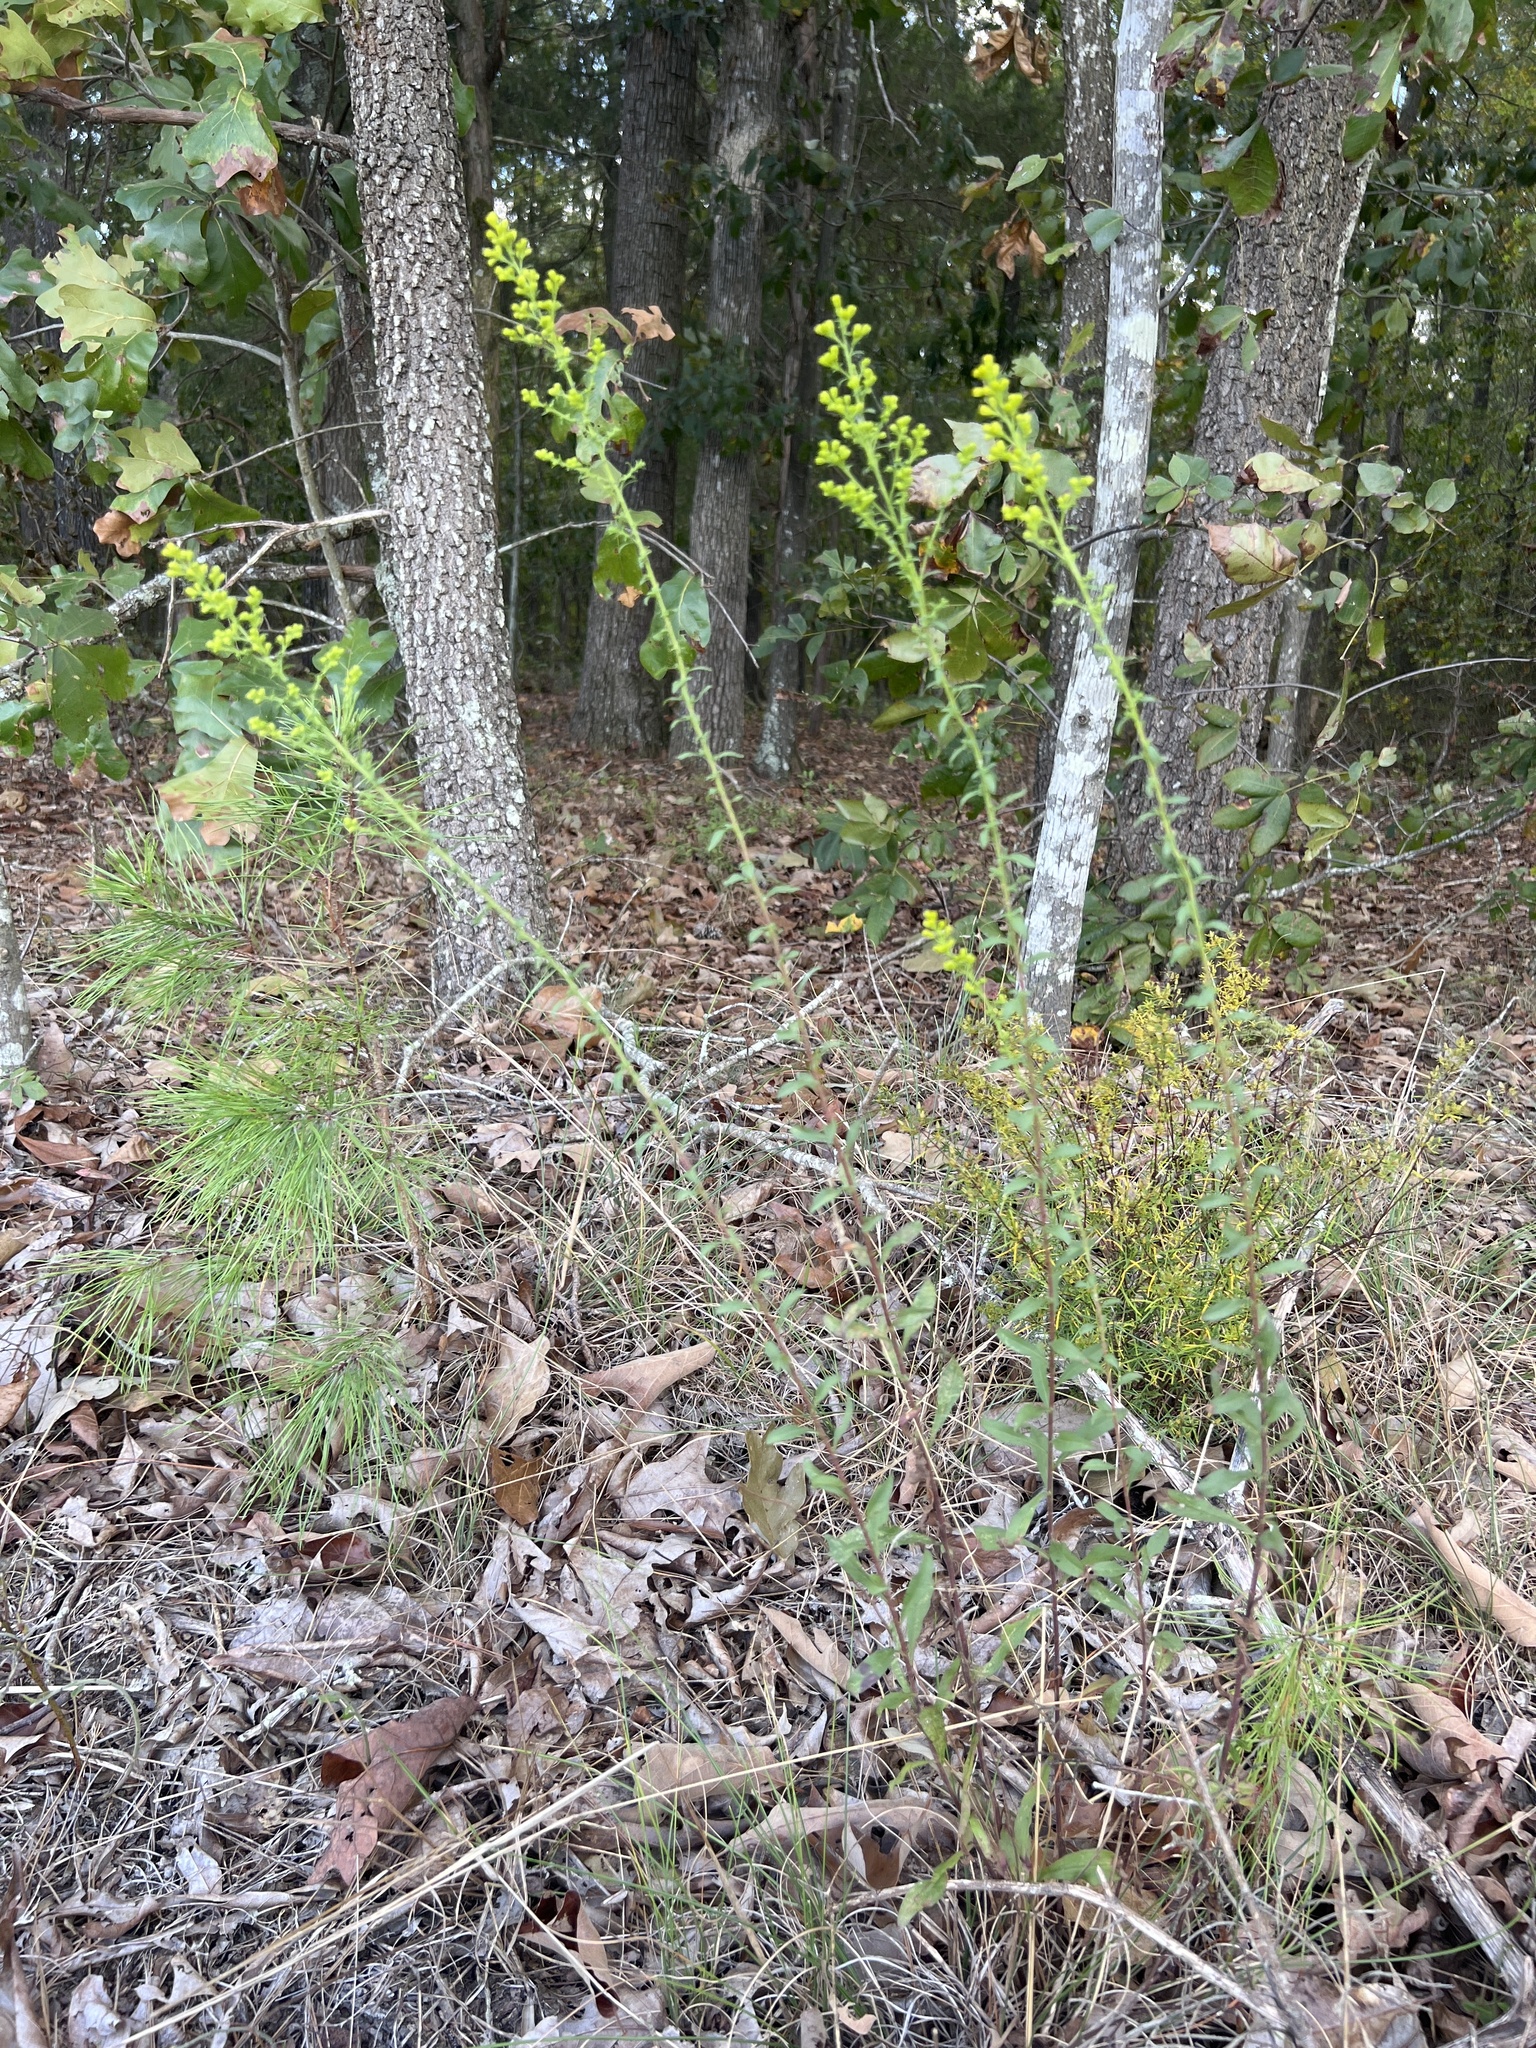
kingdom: Plantae
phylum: Tracheophyta
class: Magnoliopsida
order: Asterales
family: Asteraceae
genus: Solidago
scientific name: Solidago nemoralis
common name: Grey goldenrod
